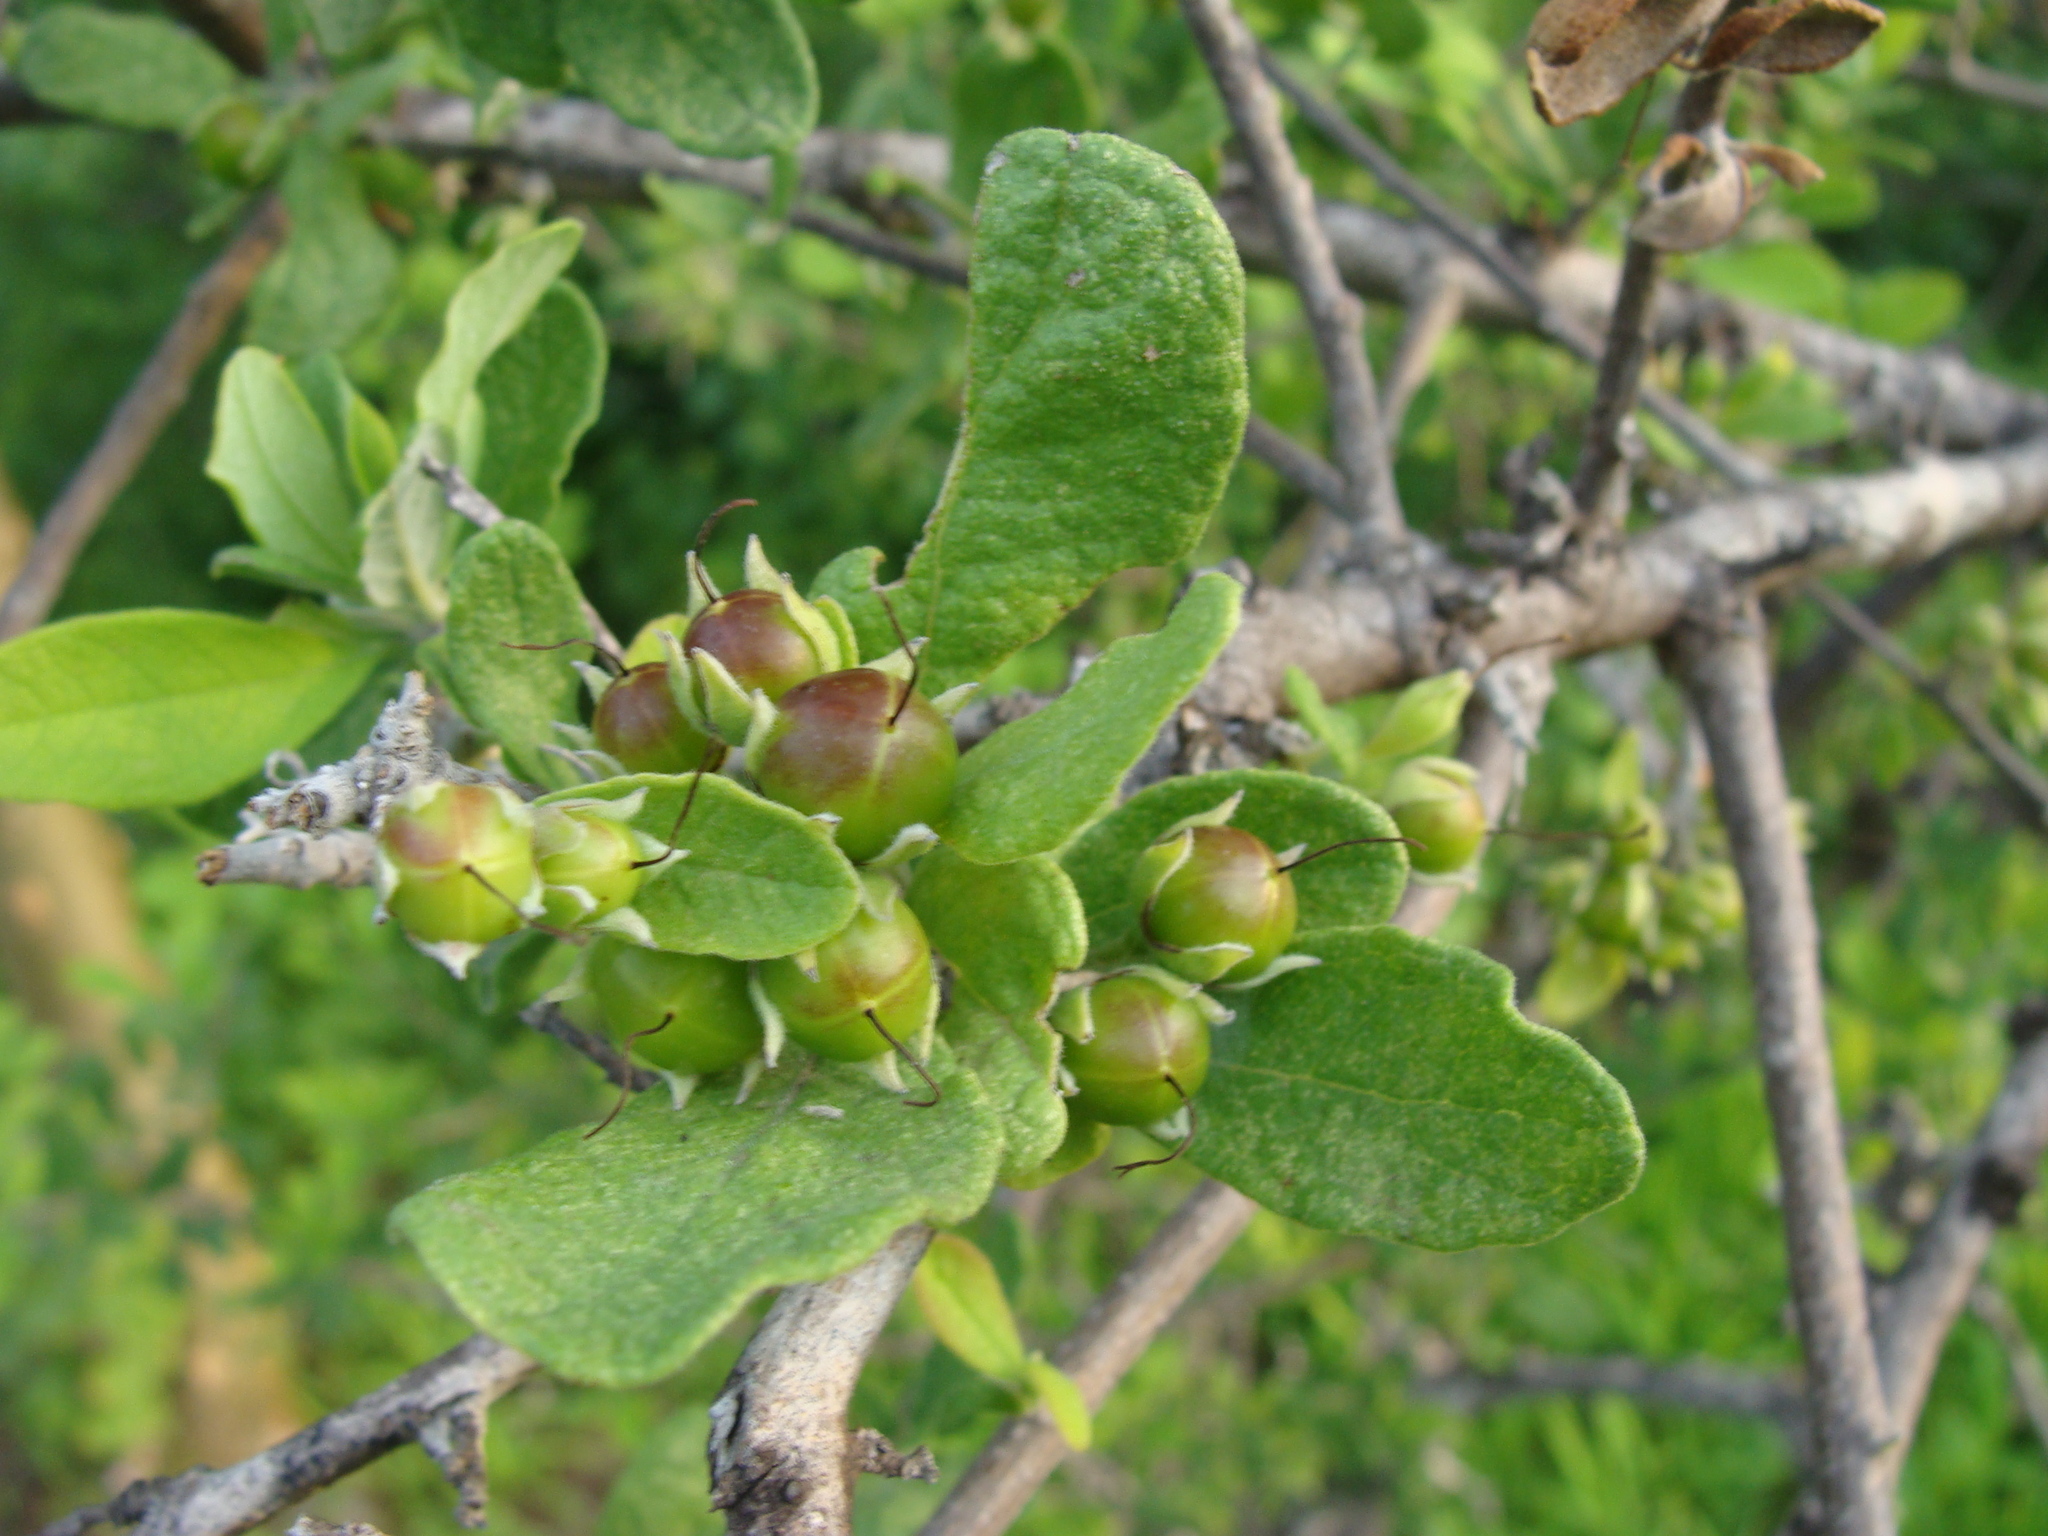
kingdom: Plantae
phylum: Tracheophyta
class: Magnoliopsida
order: Boraginales
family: Ehretiaceae
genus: Bourreria
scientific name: Bourreria sonorae
